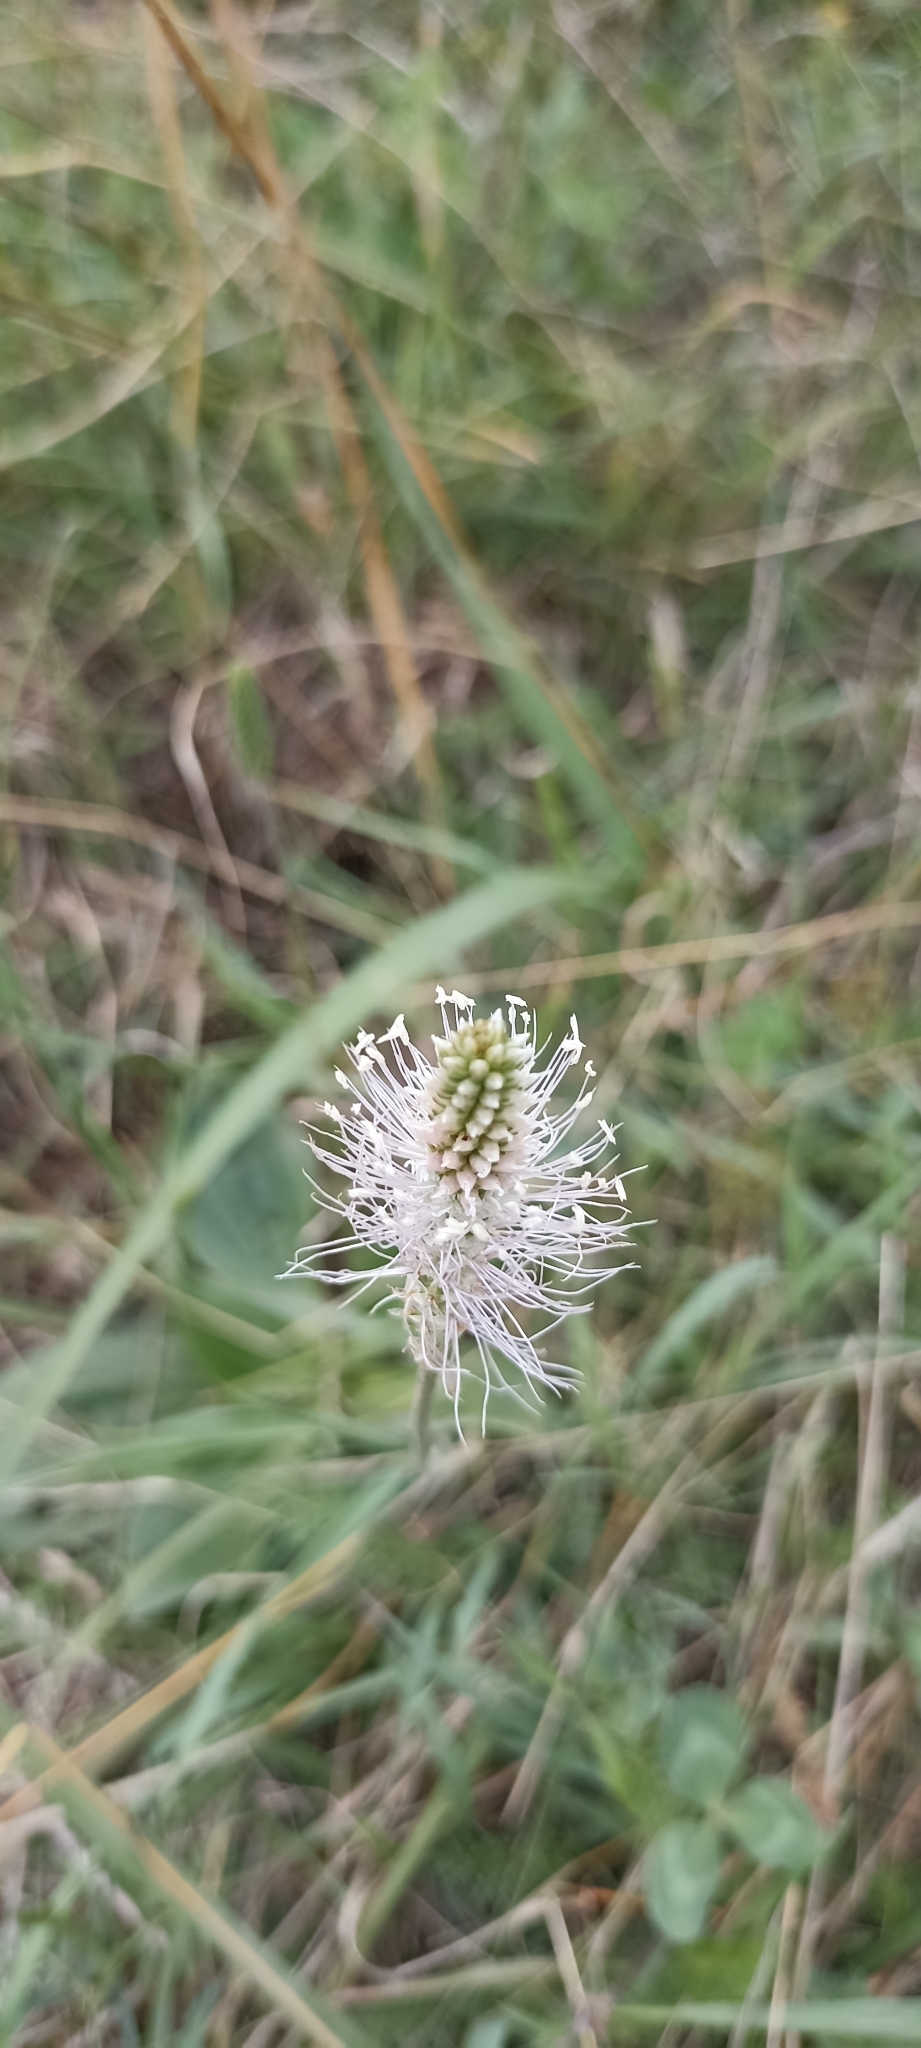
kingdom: Plantae
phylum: Tracheophyta
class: Magnoliopsida
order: Lamiales
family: Plantaginaceae
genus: Plantago
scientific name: Plantago media
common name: Hoary plantain
